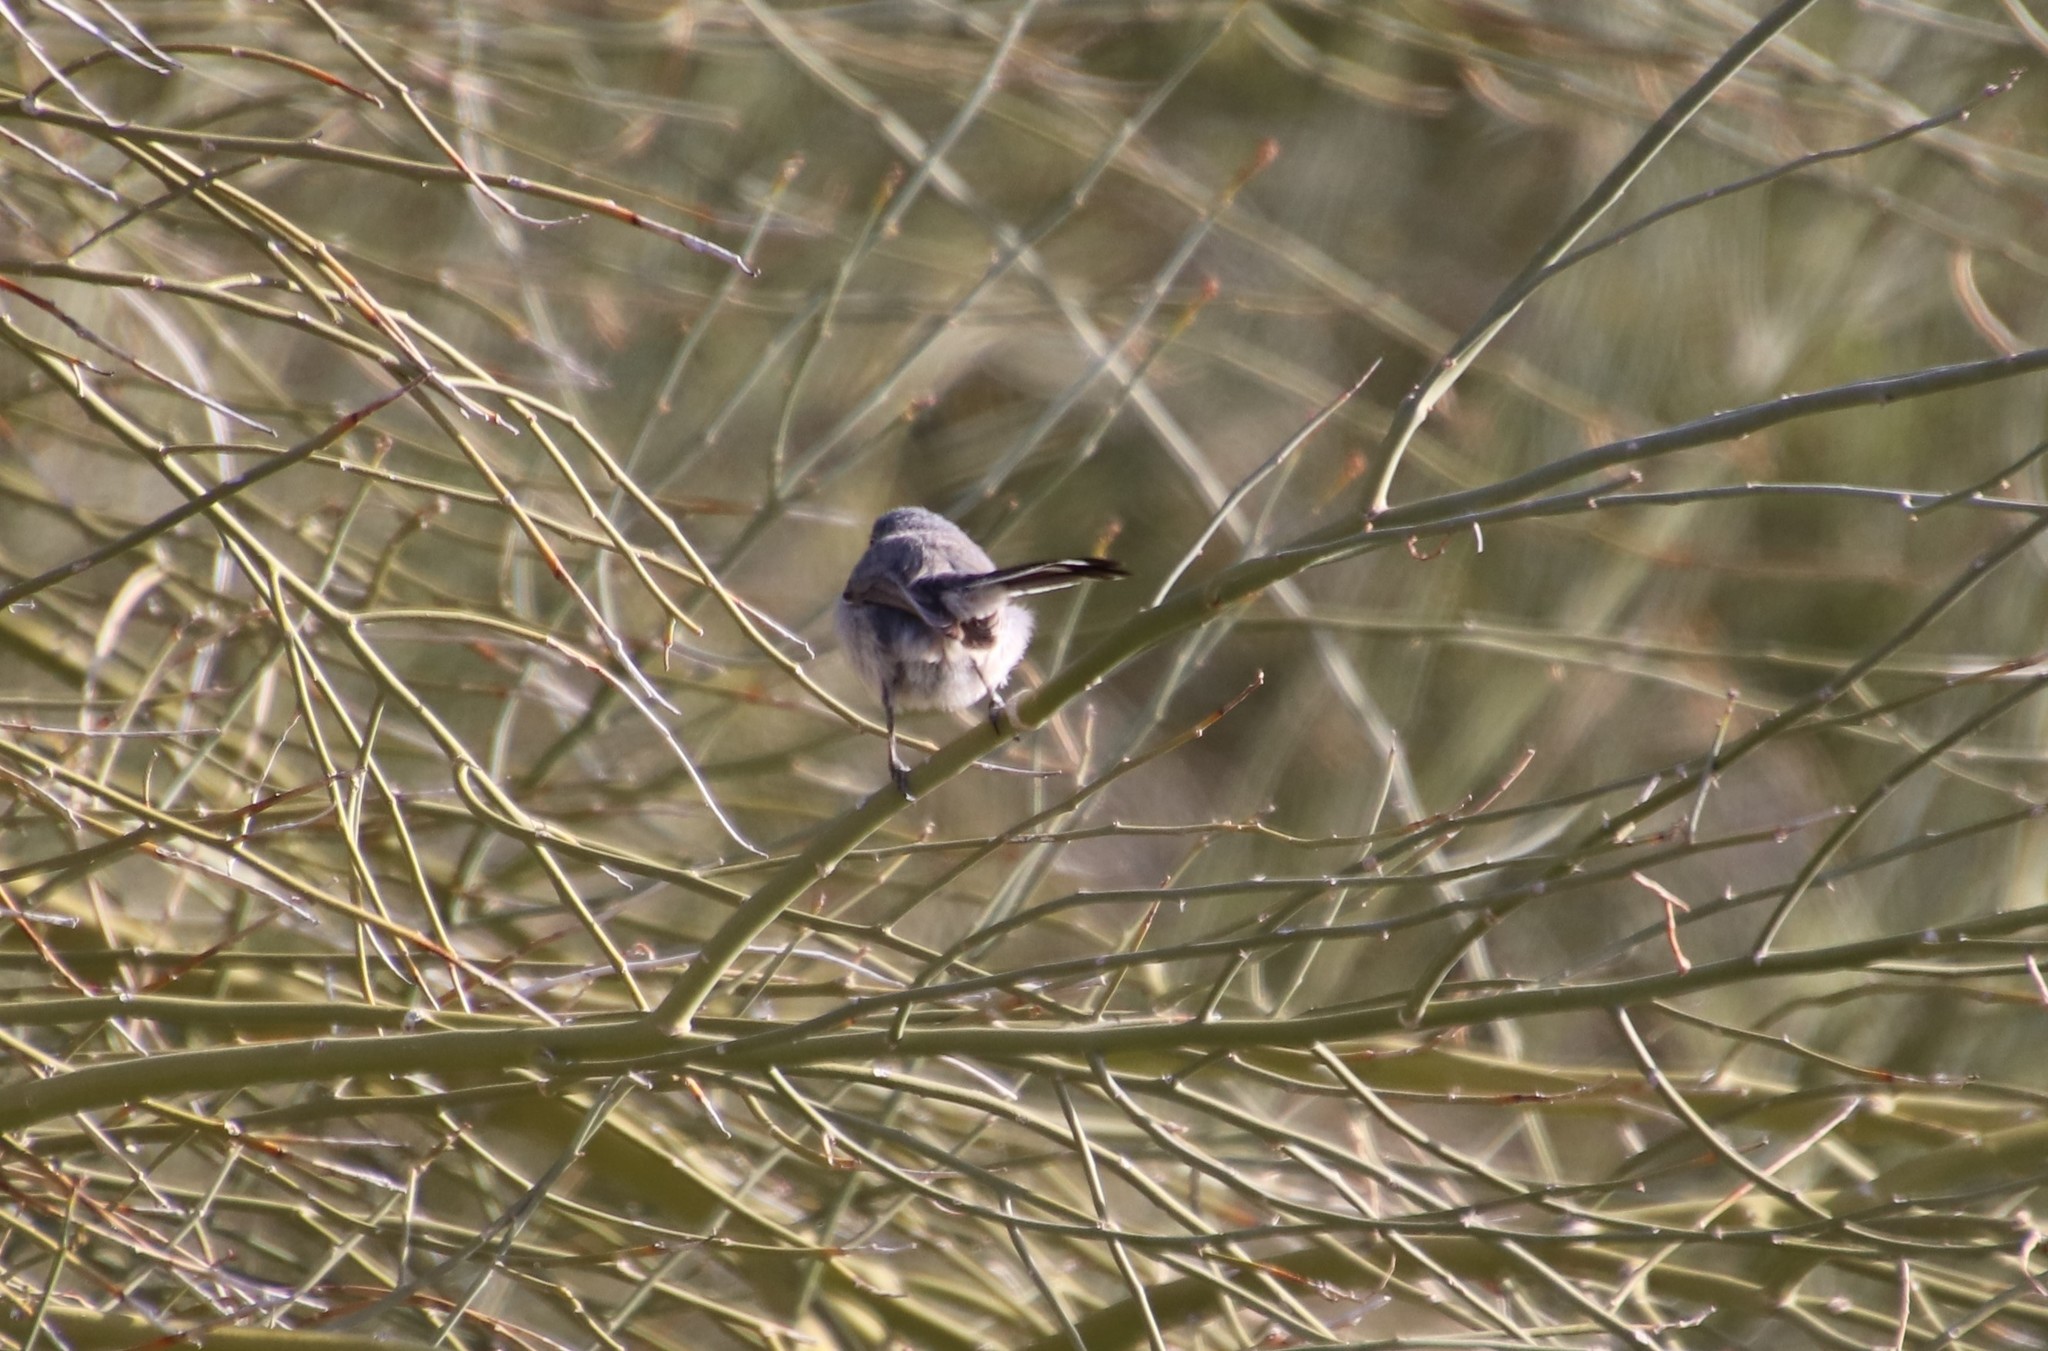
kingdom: Animalia
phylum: Chordata
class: Aves
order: Passeriformes
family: Polioptilidae
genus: Polioptila
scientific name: Polioptila melanura
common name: Black-tailed gnatcatcher
